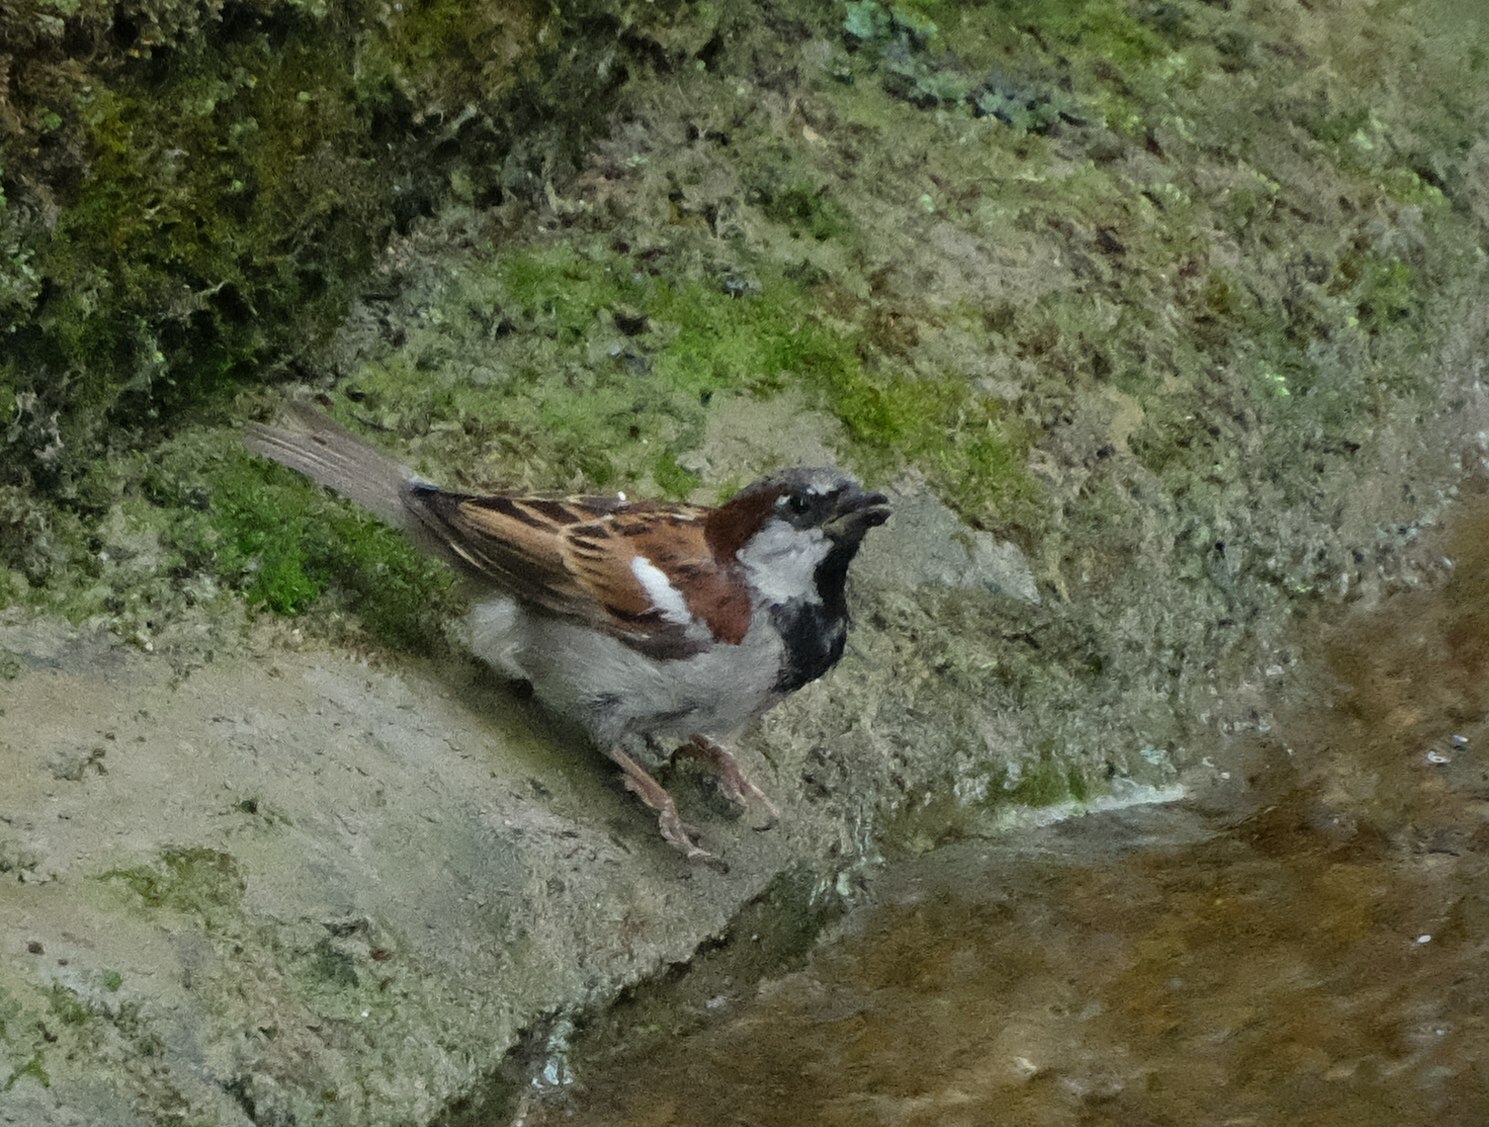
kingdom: Animalia
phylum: Chordata
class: Aves
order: Passeriformes
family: Passeridae
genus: Passer
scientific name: Passer domesticus
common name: House sparrow
